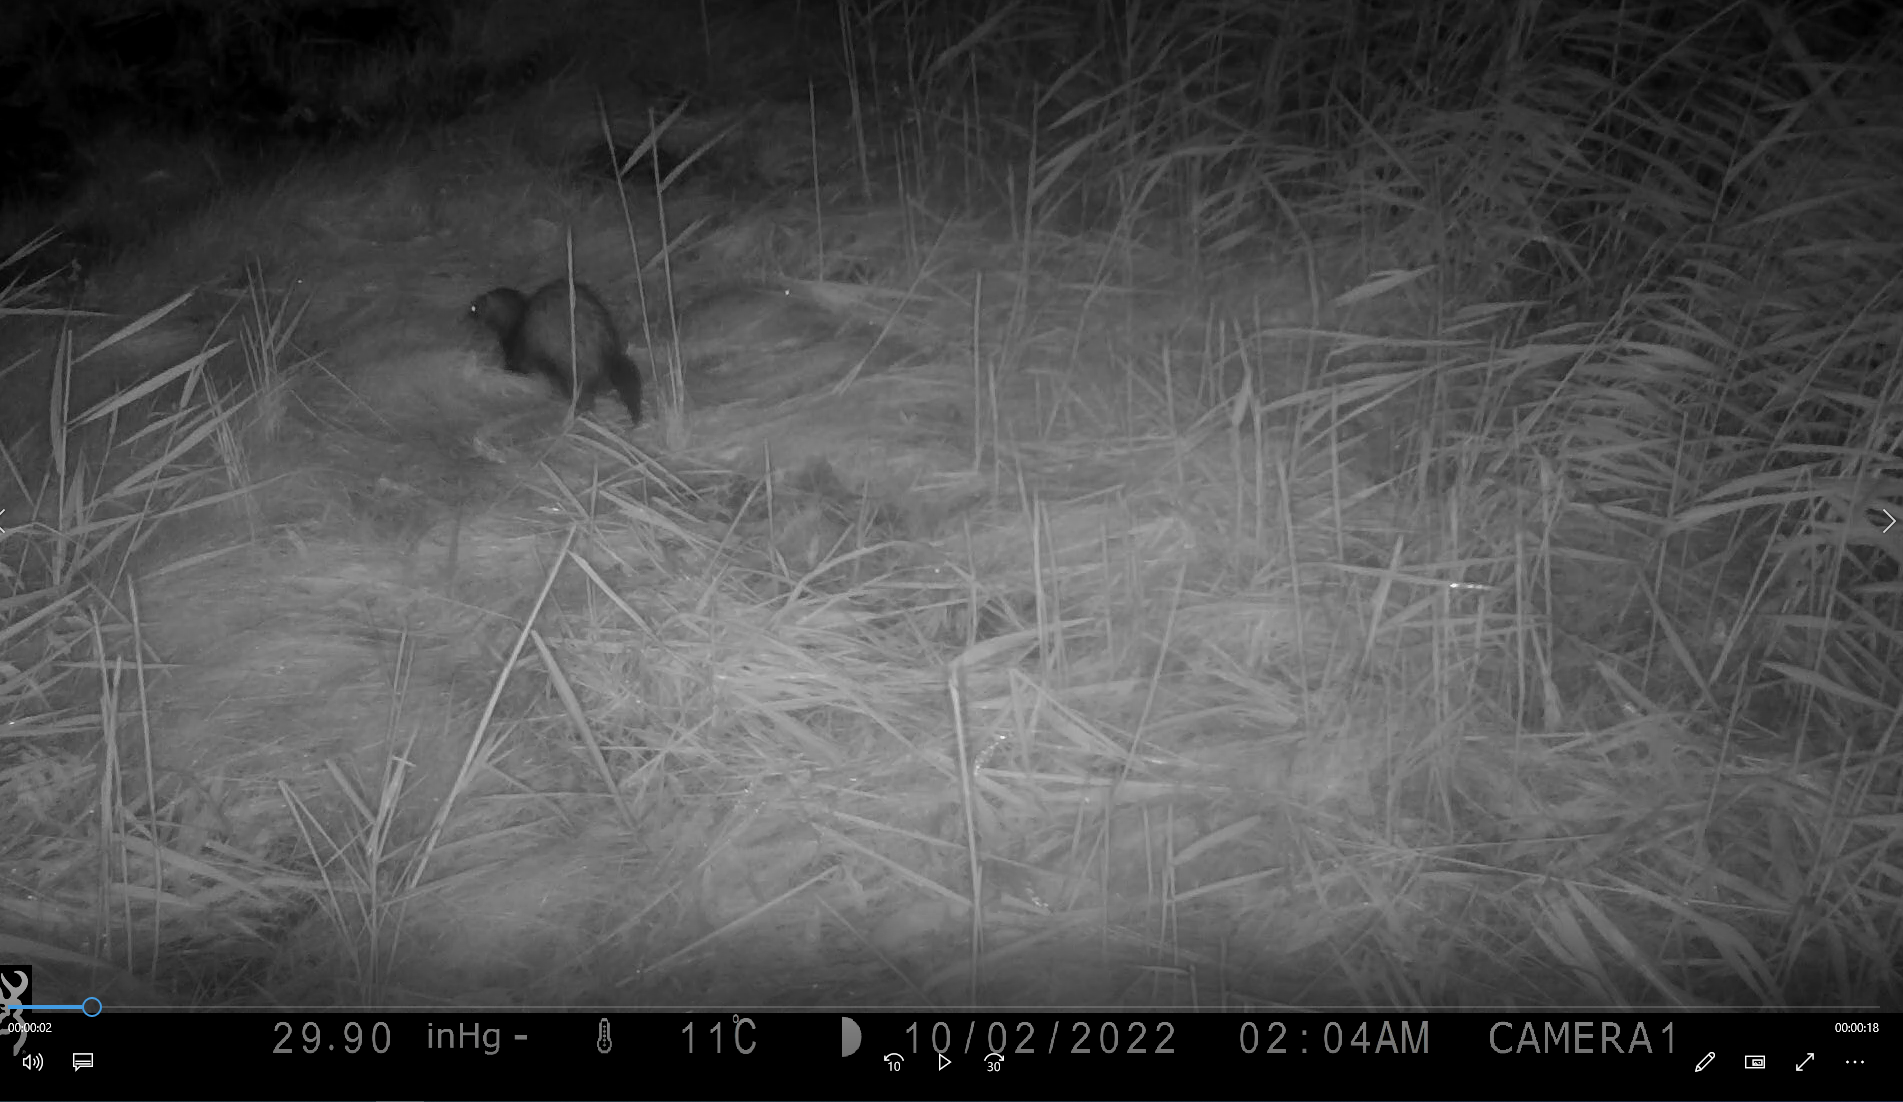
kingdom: Animalia
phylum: Chordata
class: Mammalia
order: Carnivora
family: Mustelidae
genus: Mustela
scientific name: Mustela putorius
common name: European polecat
